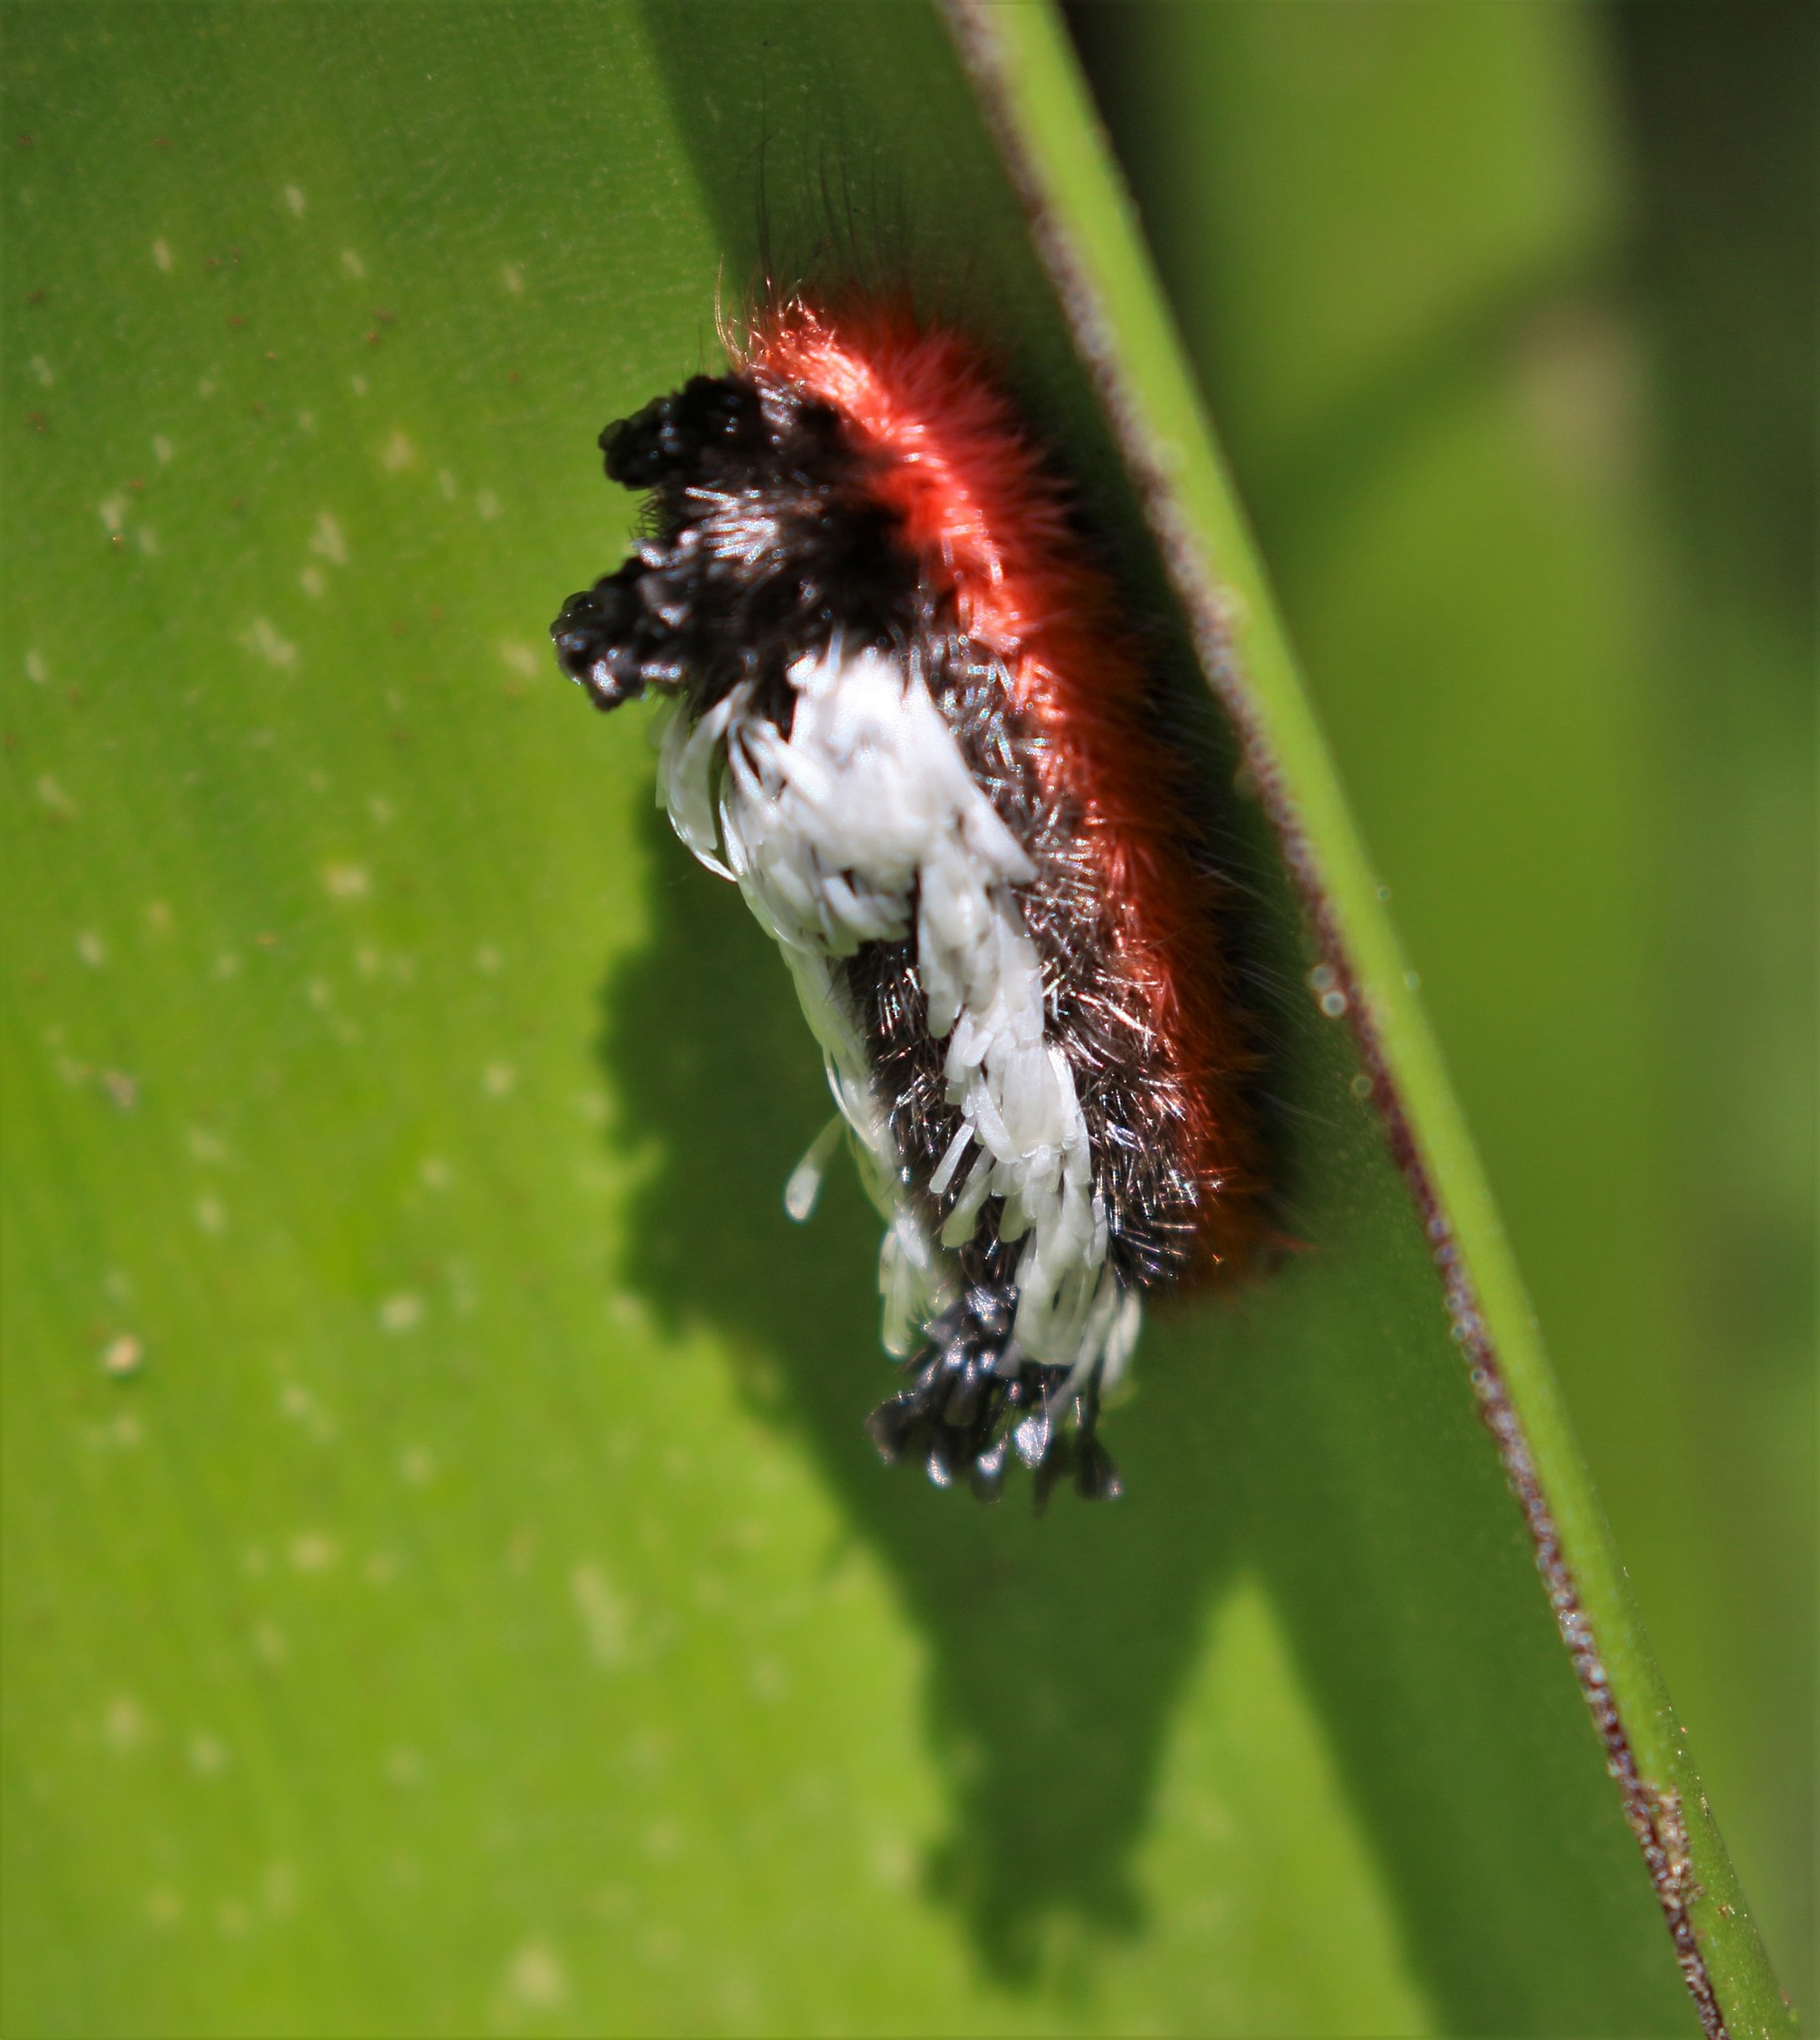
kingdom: Animalia
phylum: Arthropoda
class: Insecta
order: Lepidoptera
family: Bombycidae
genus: Prothysana
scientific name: Prothysana
